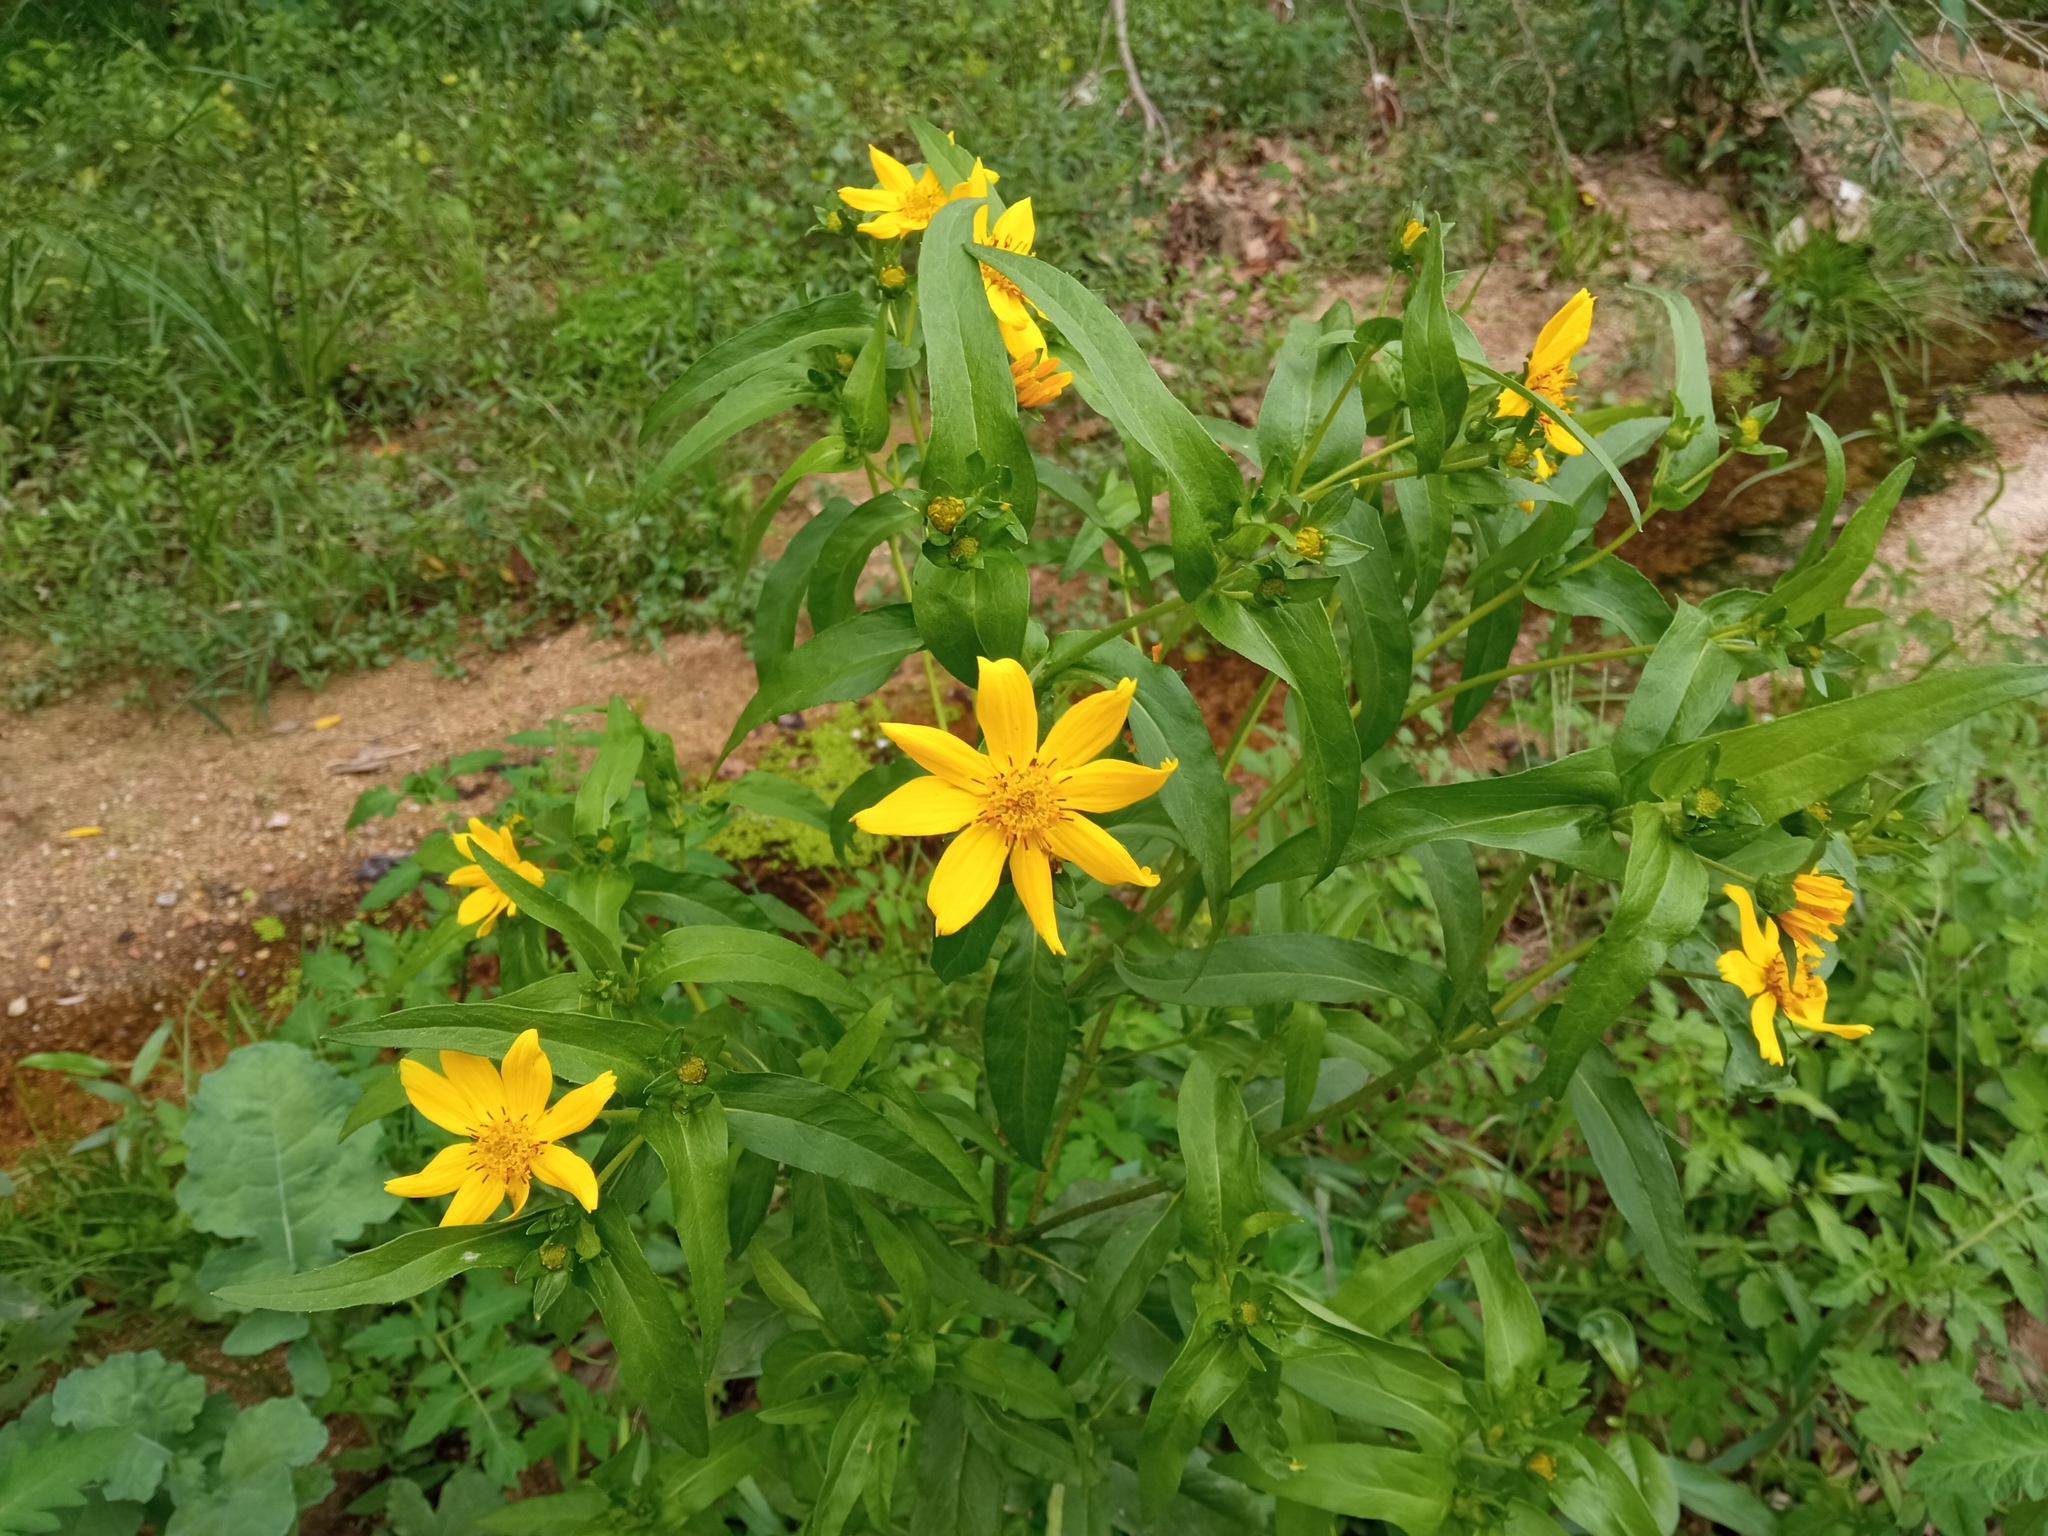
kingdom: Plantae
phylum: Tracheophyta
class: Magnoliopsida
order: Asterales
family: Asteraceae
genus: Guizotia
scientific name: Guizotia abyssinica
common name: Niger
